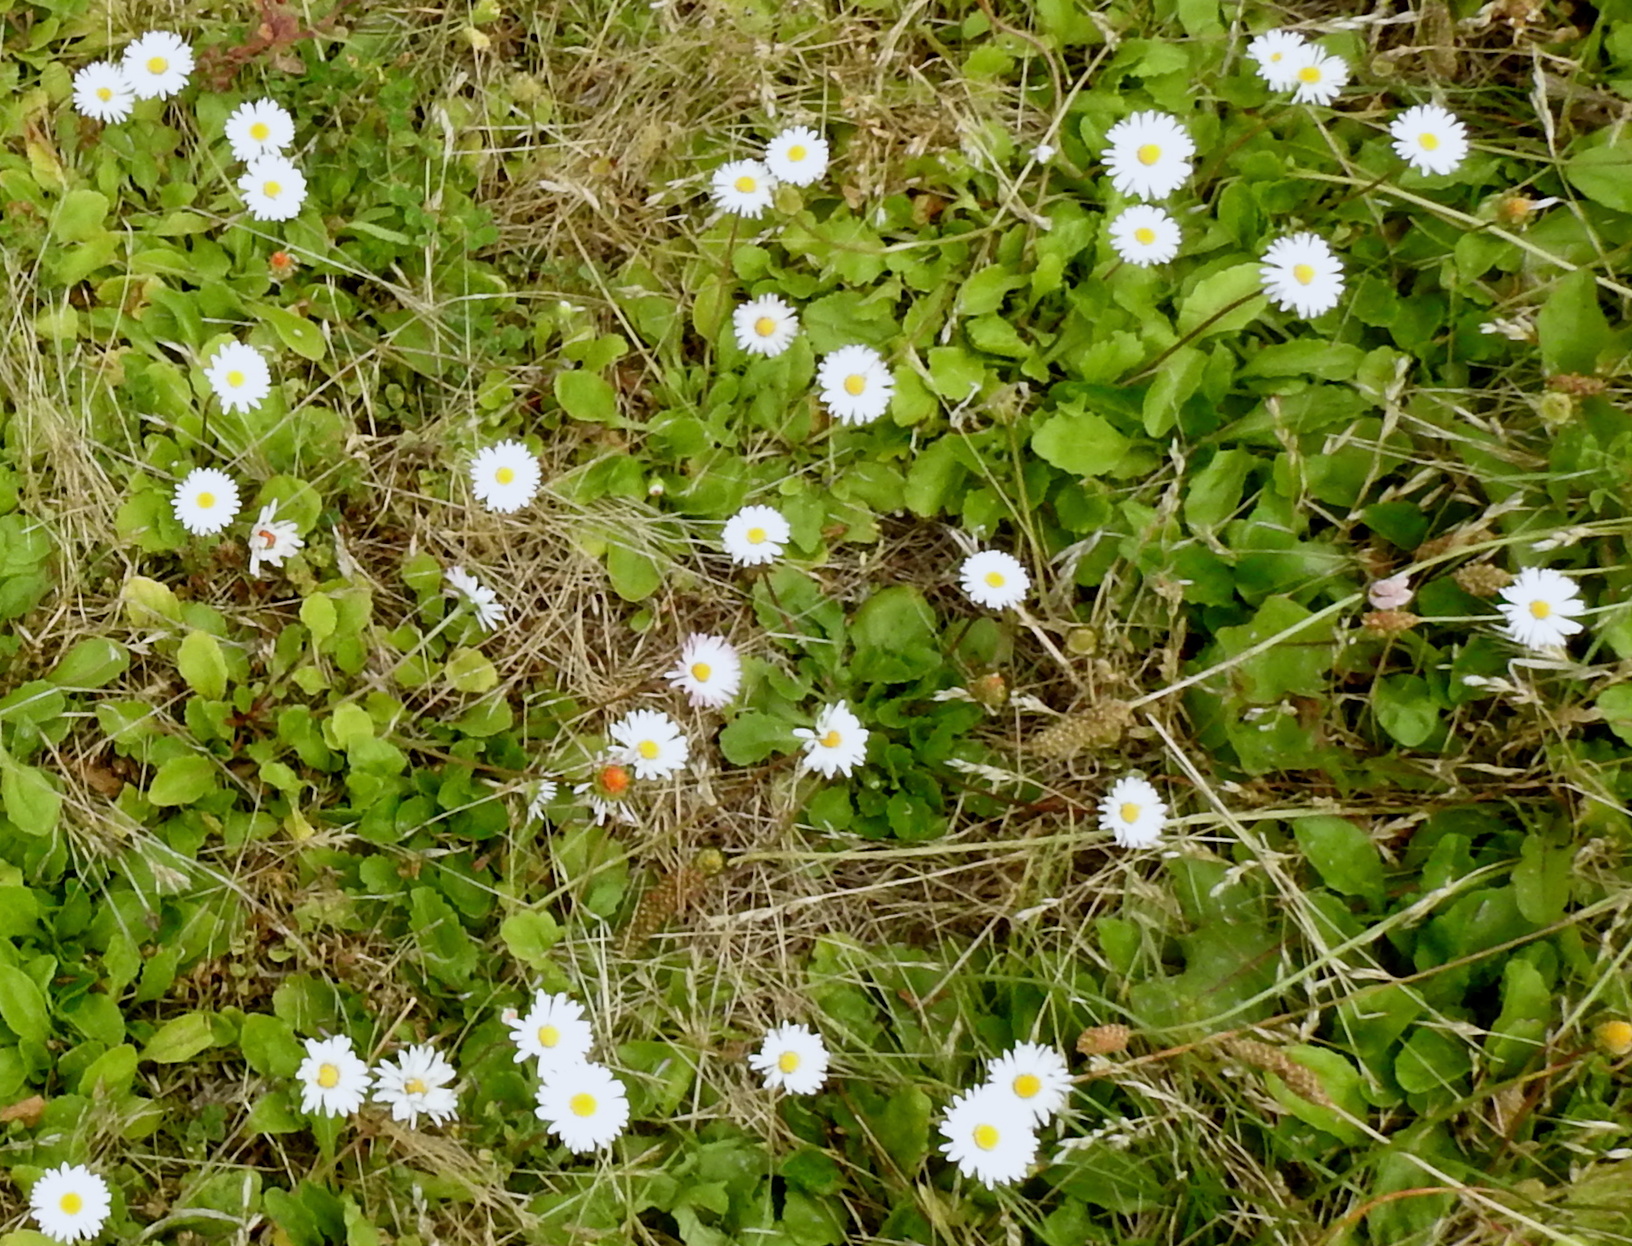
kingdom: Plantae
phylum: Tracheophyta
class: Magnoliopsida
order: Asterales
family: Asteraceae
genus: Bellis
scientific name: Bellis perennis
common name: Lawndaisy
